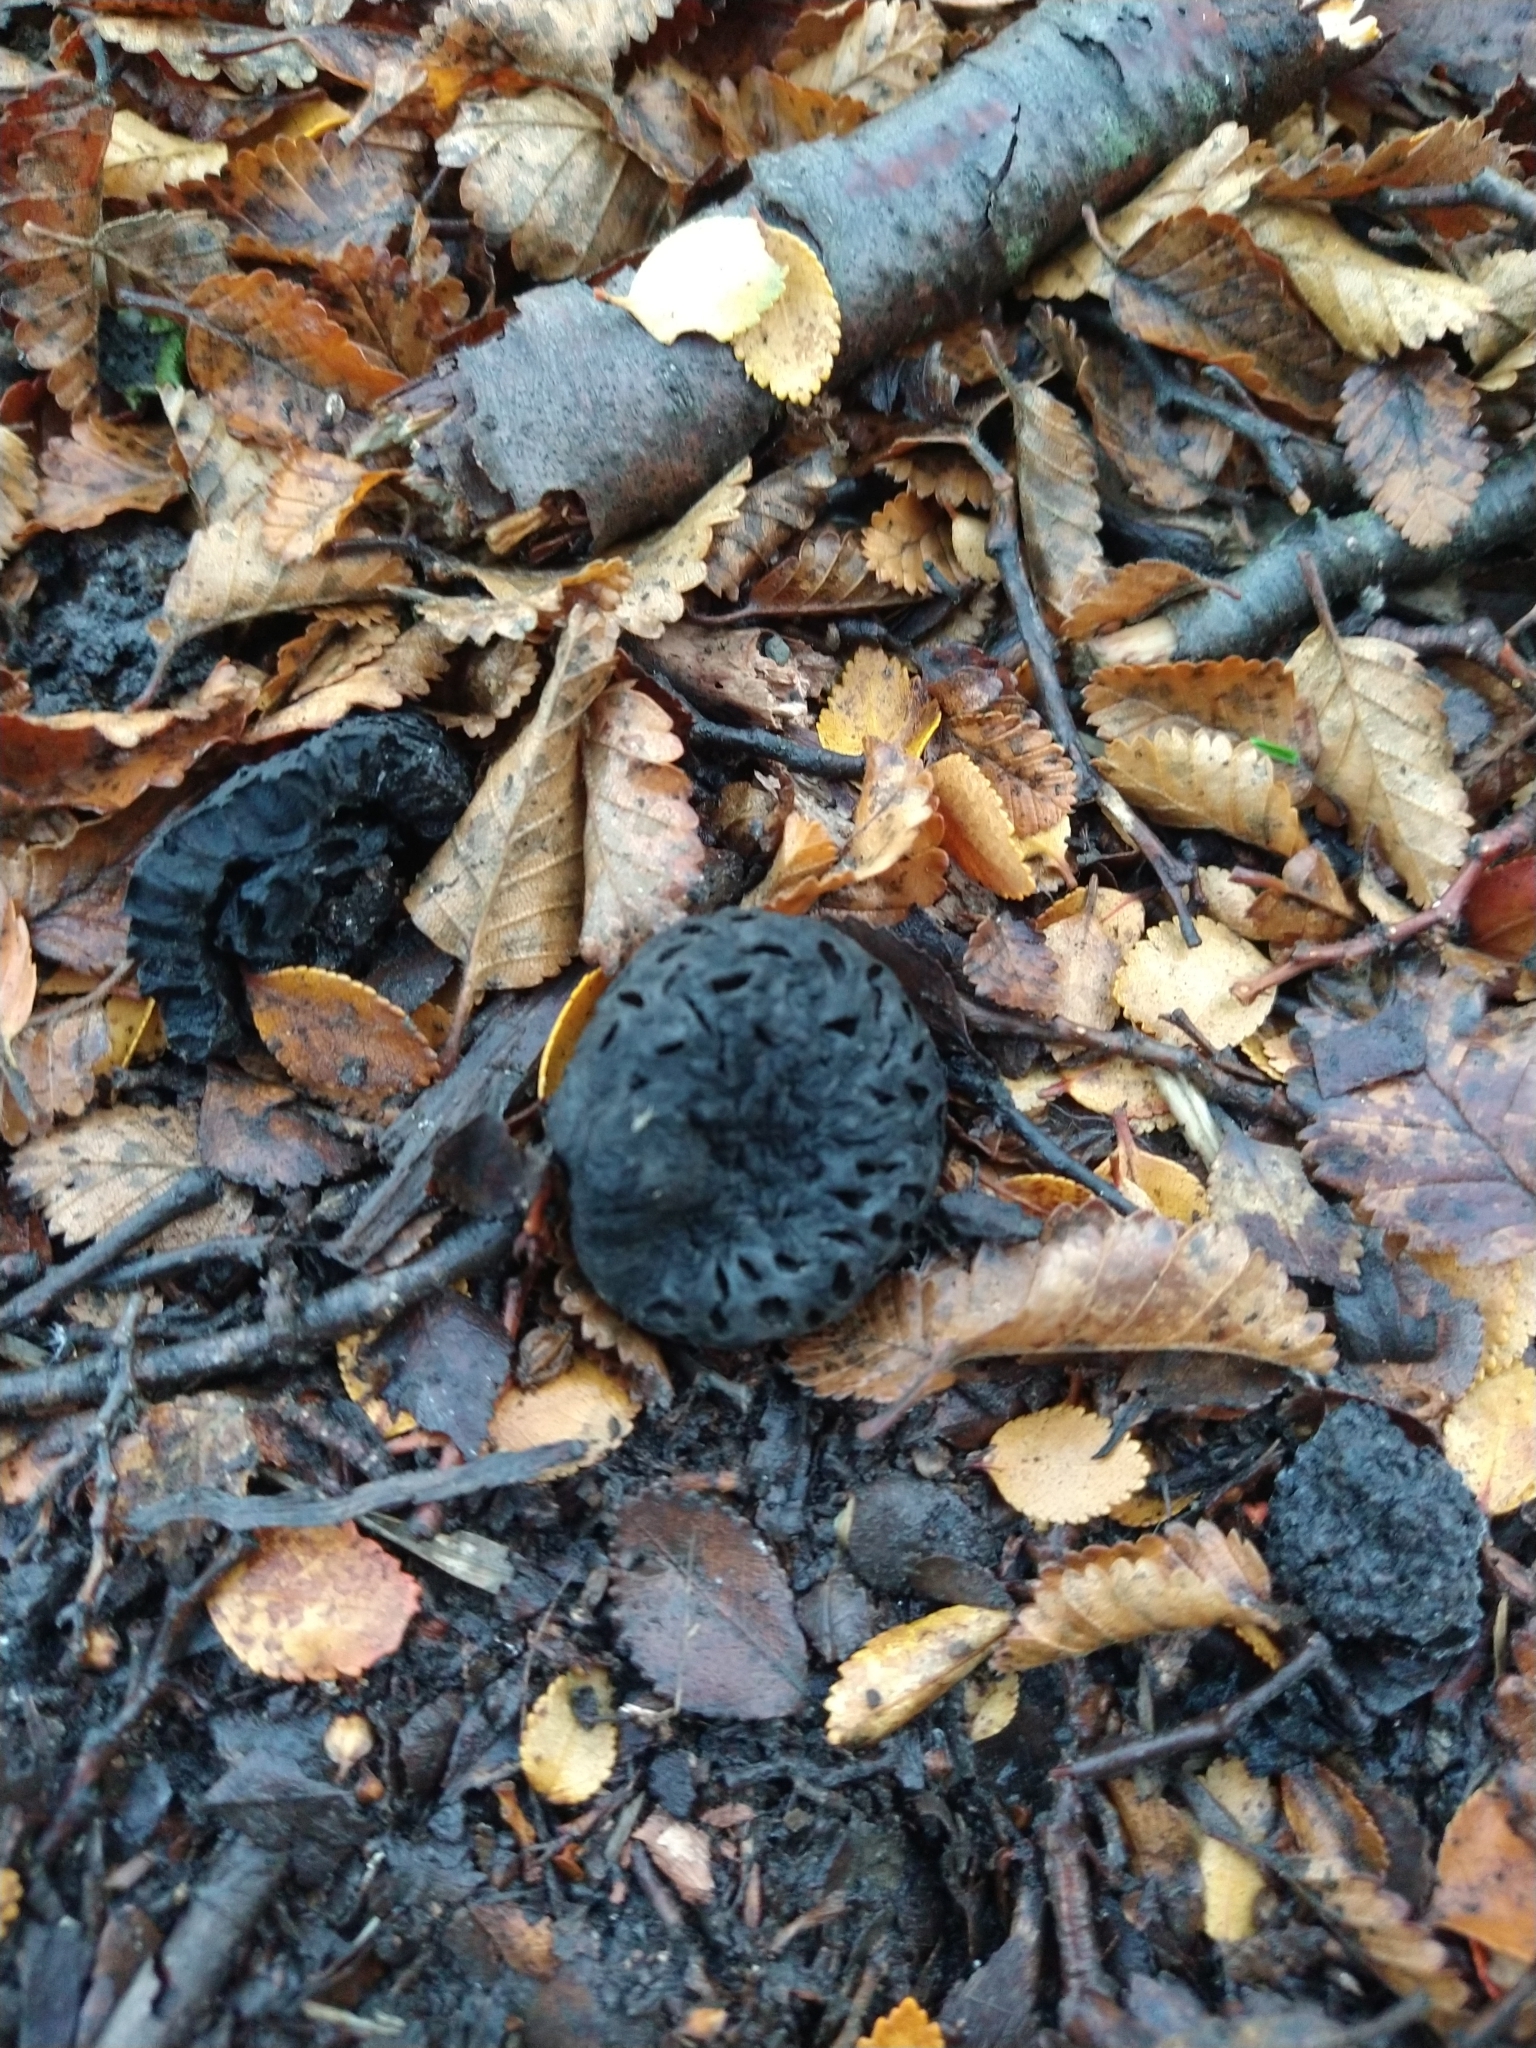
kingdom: Fungi
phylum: Ascomycota
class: Leotiomycetes
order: Cyttariales
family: Cyttariaceae
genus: Cyttaria
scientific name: Cyttaria
